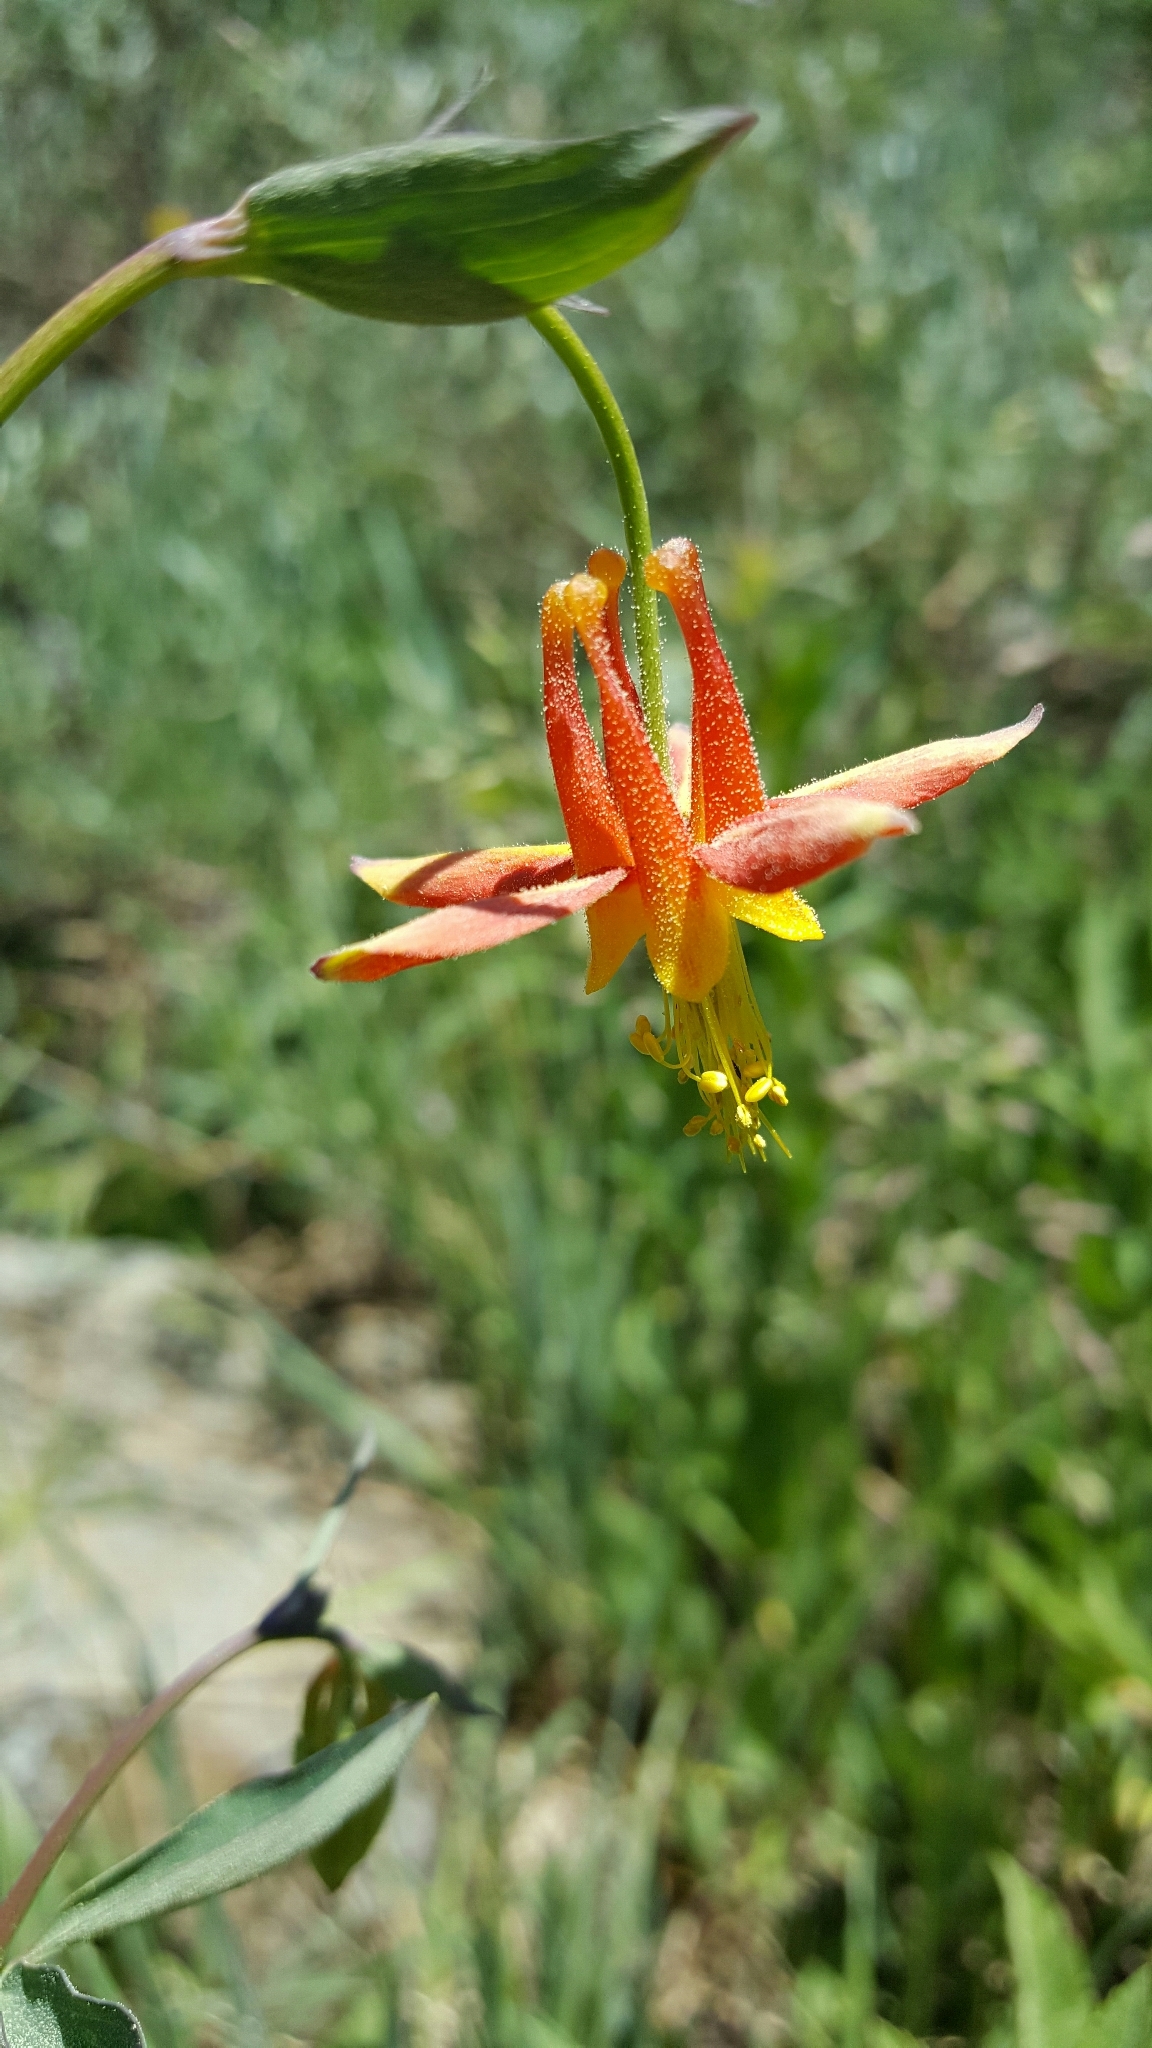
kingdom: Plantae
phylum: Tracheophyta
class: Magnoliopsida
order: Ranunculales
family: Ranunculaceae
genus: Aquilegia
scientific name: Aquilegia formosa
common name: Sitka columbine
